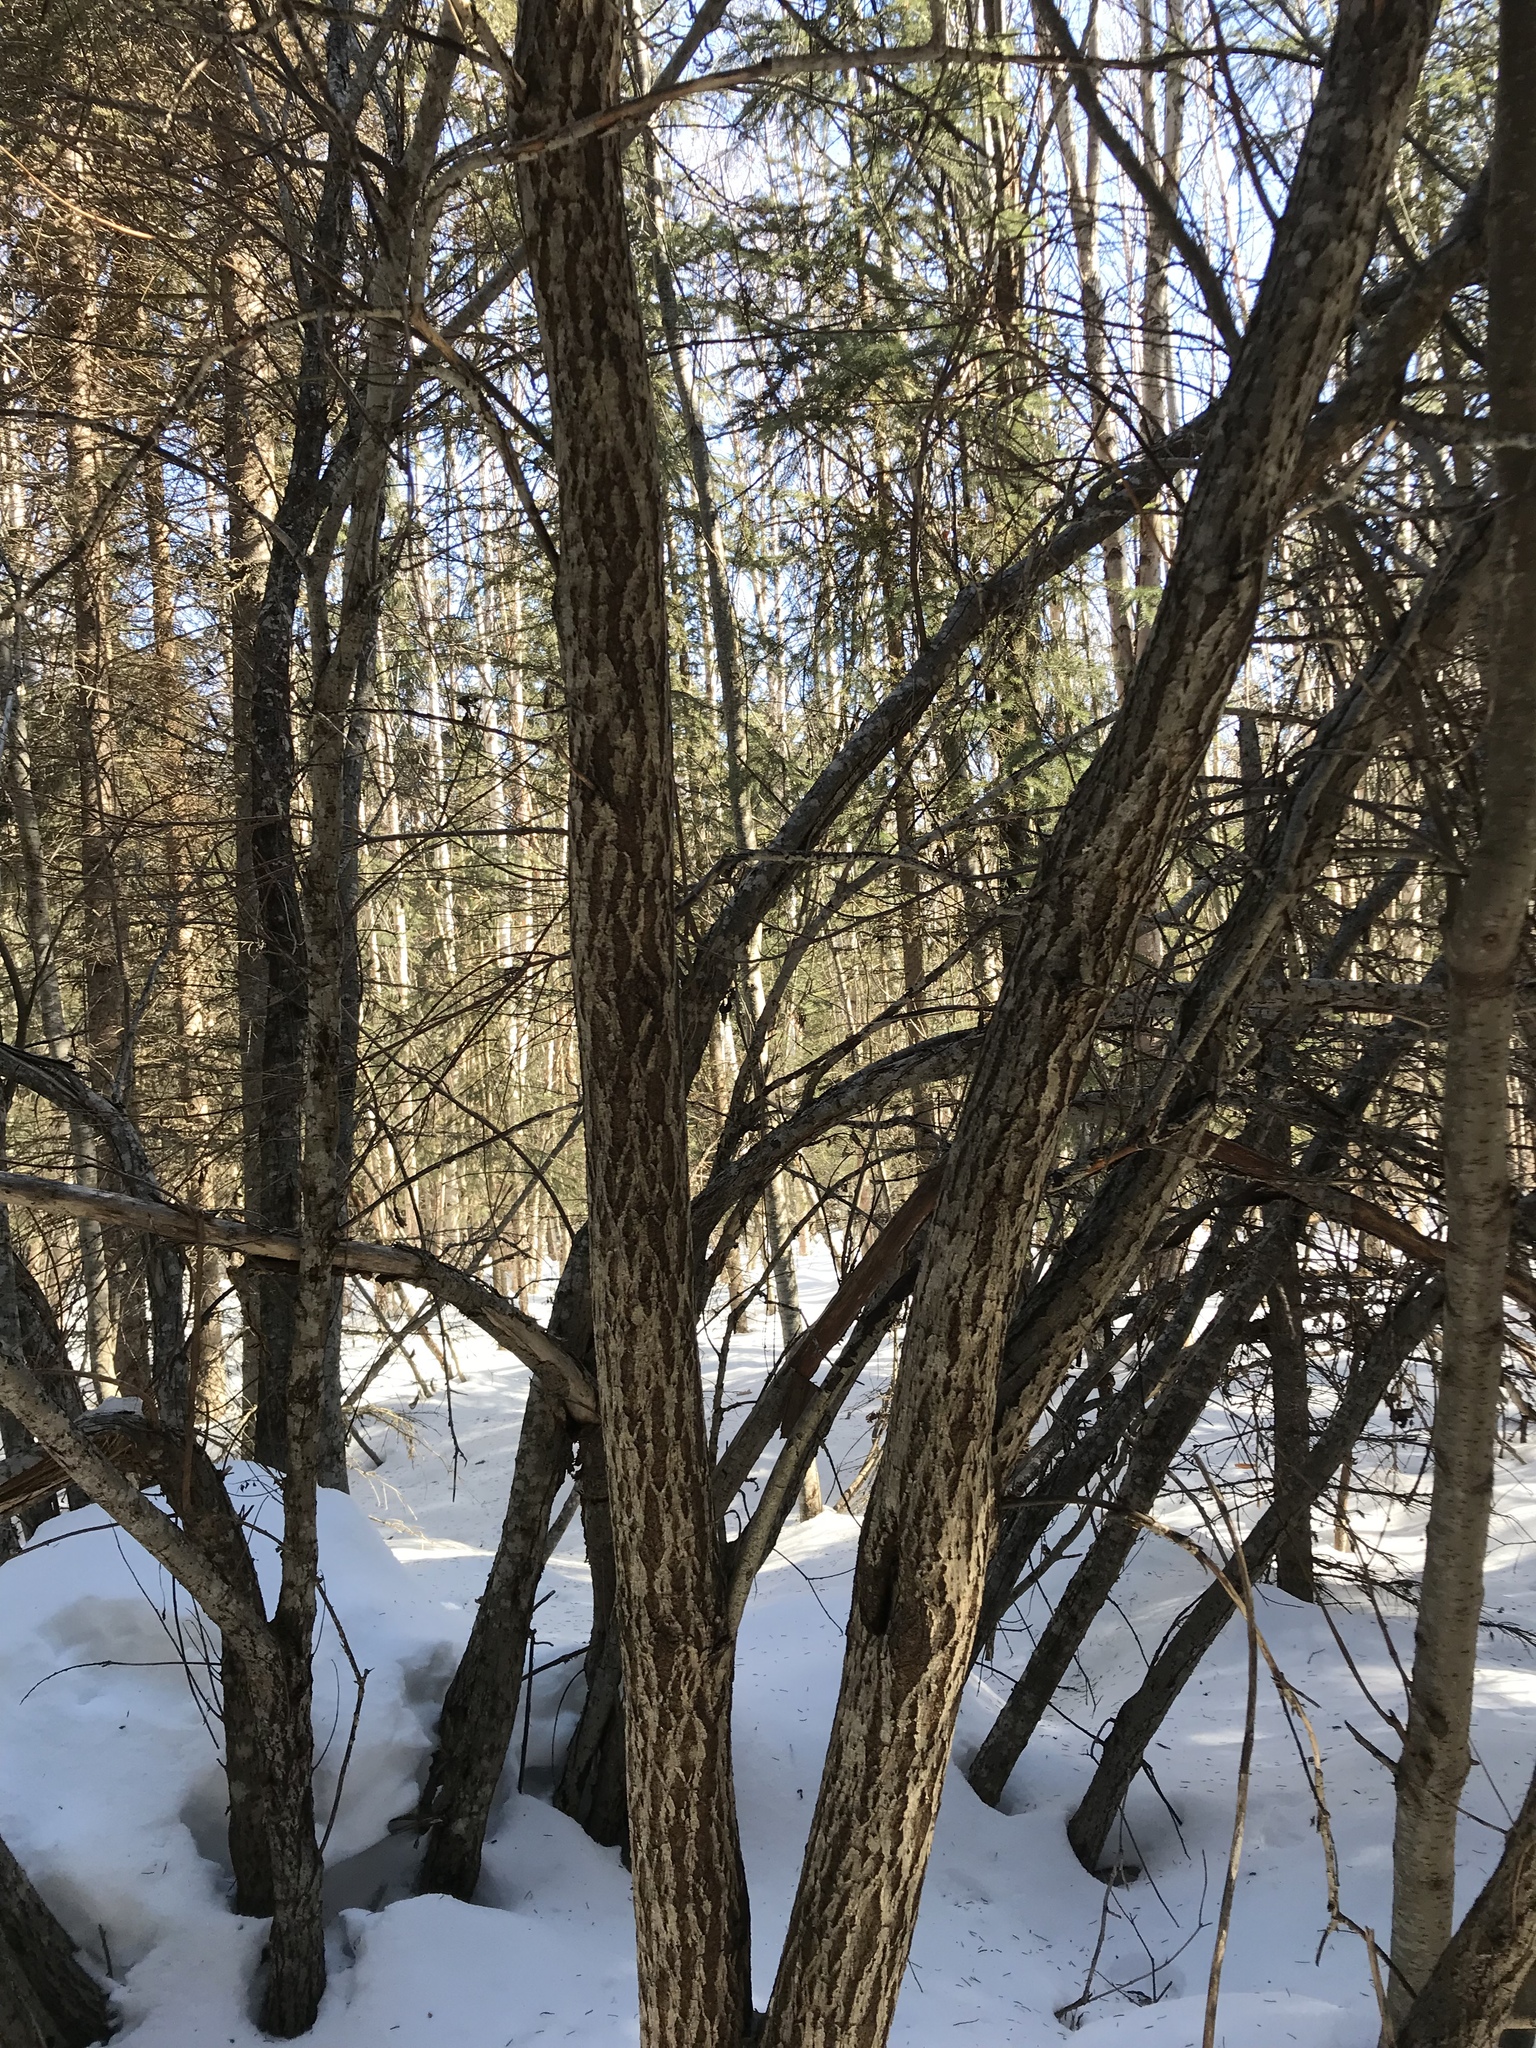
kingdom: Plantae
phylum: Tracheophyta
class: Magnoliopsida
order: Sapindales
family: Sapindaceae
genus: Acer
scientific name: Acer glabrum
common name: Rocky mountain maple
